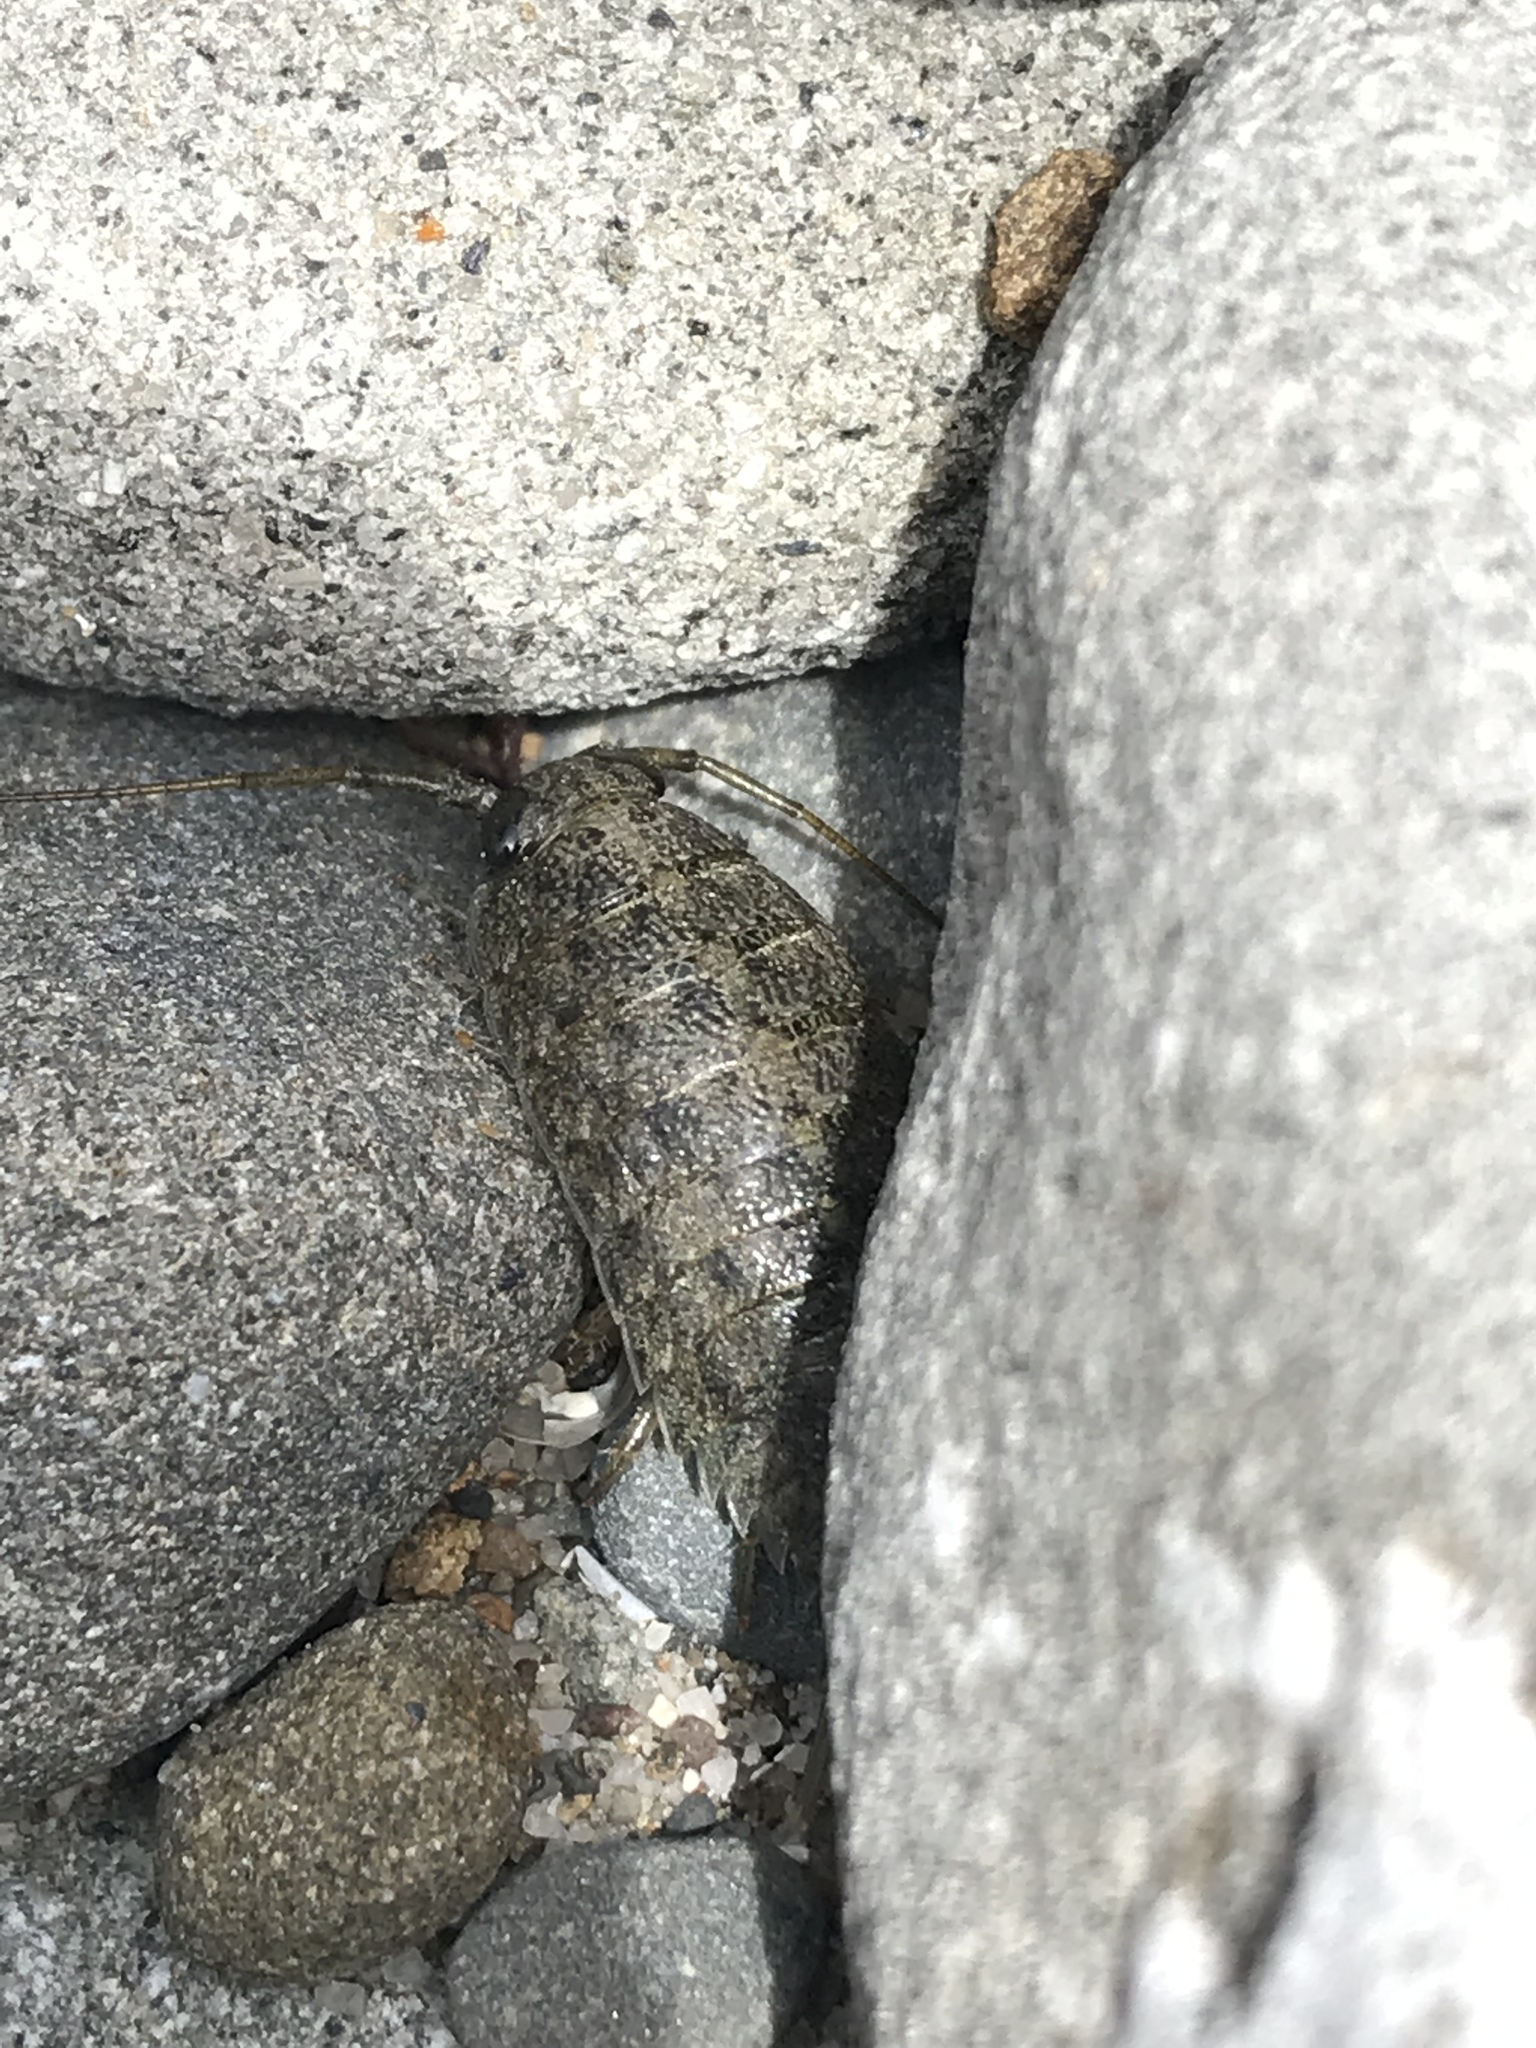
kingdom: Animalia
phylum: Arthropoda
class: Malacostraca
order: Isopoda
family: Ligiidae
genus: Ligia
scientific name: Ligia occidentalis
